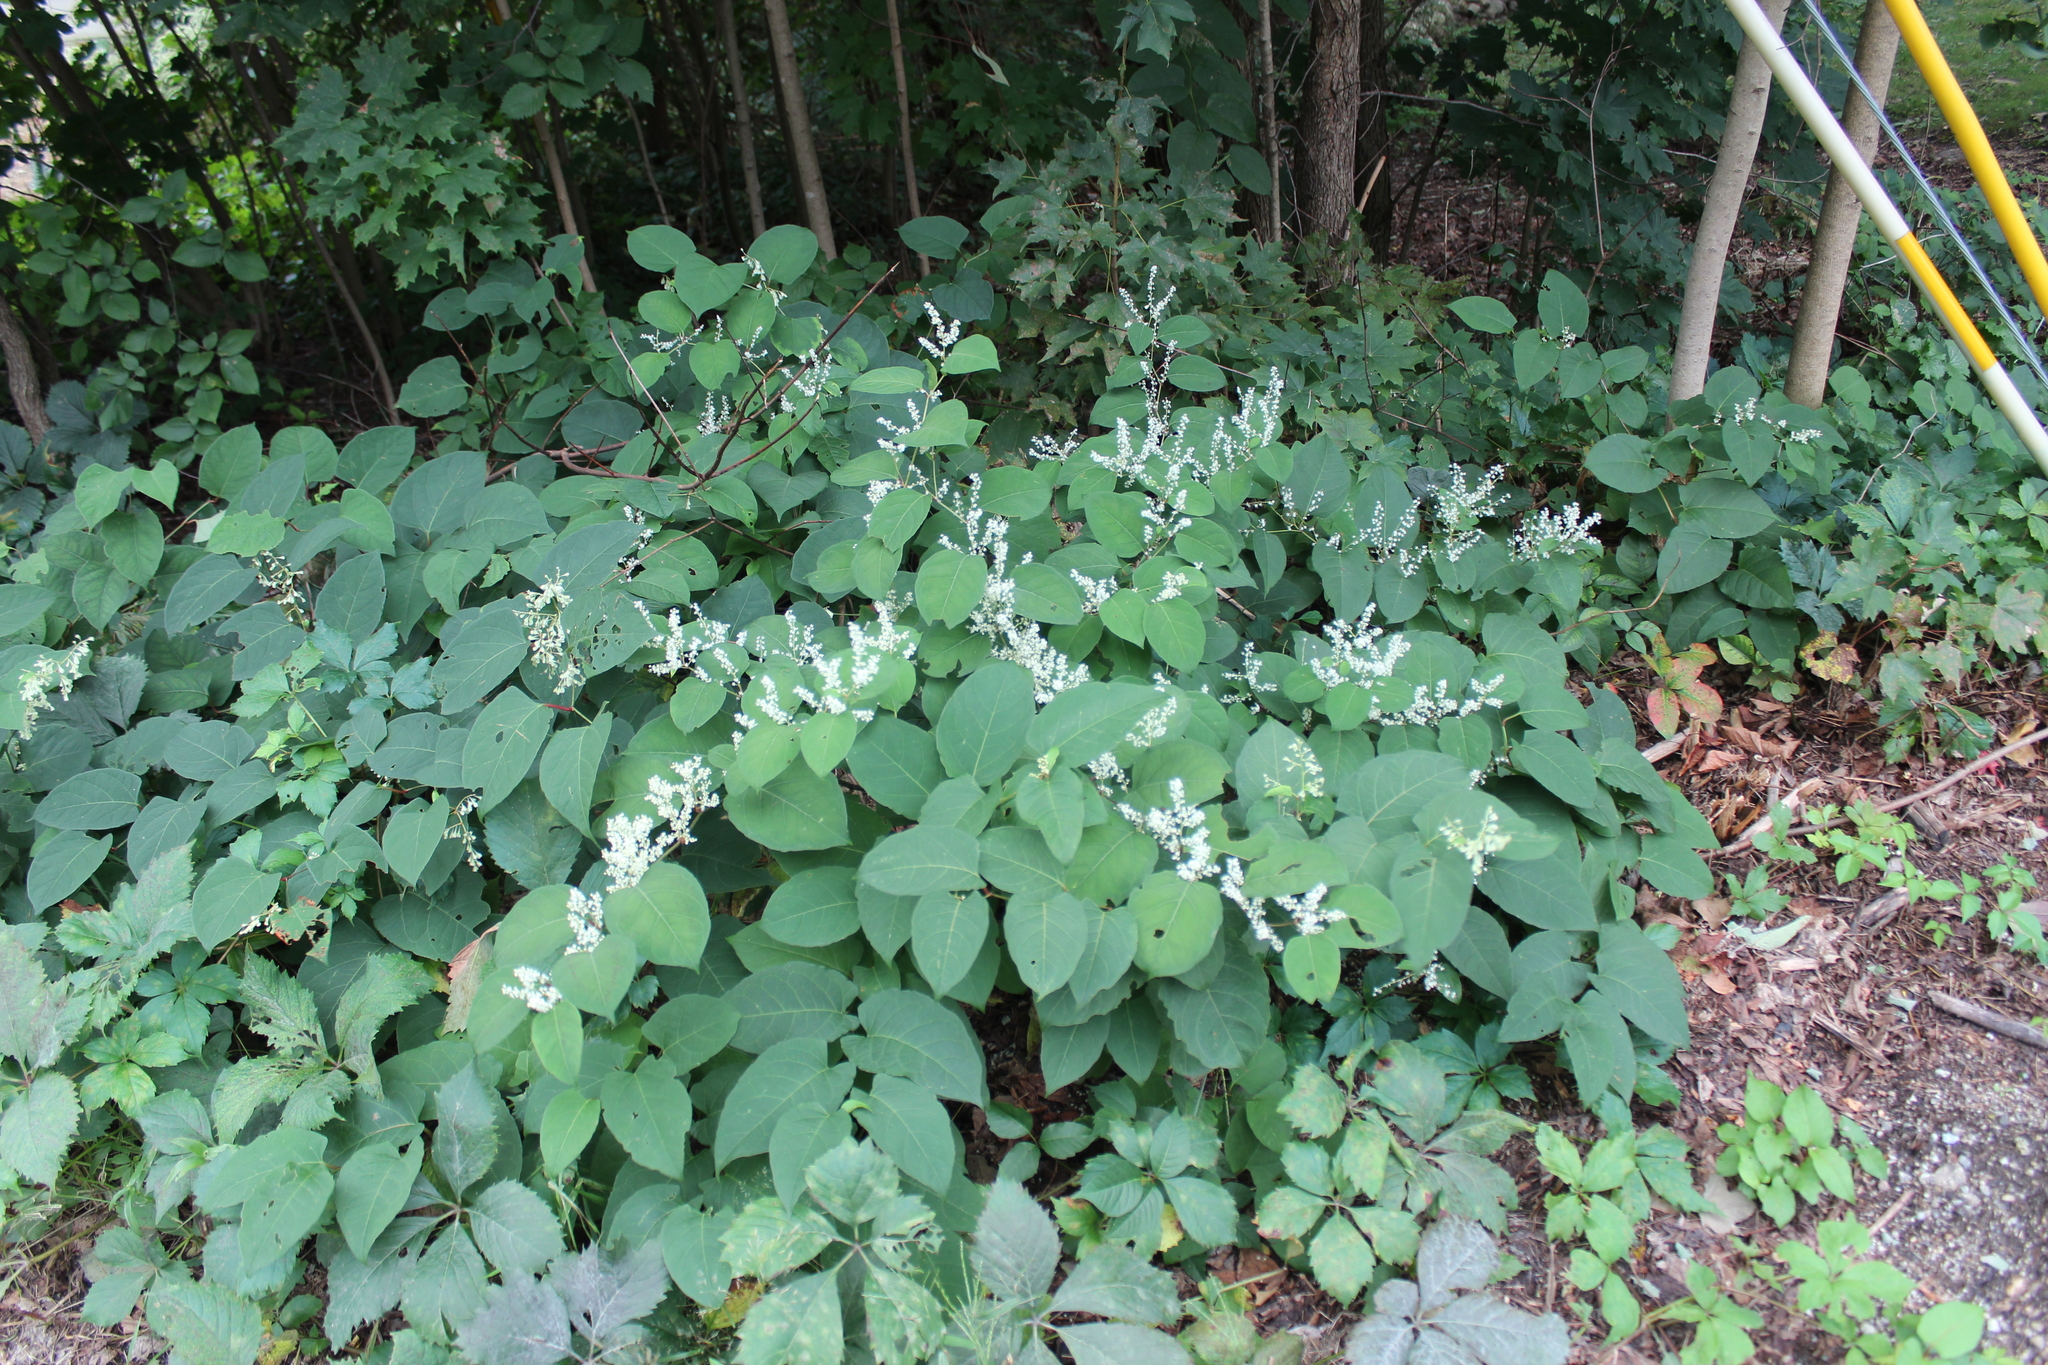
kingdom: Plantae
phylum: Tracheophyta
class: Magnoliopsida
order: Caryophyllales
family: Polygonaceae
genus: Reynoutria
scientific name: Reynoutria japonica
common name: Japanese knotweed
